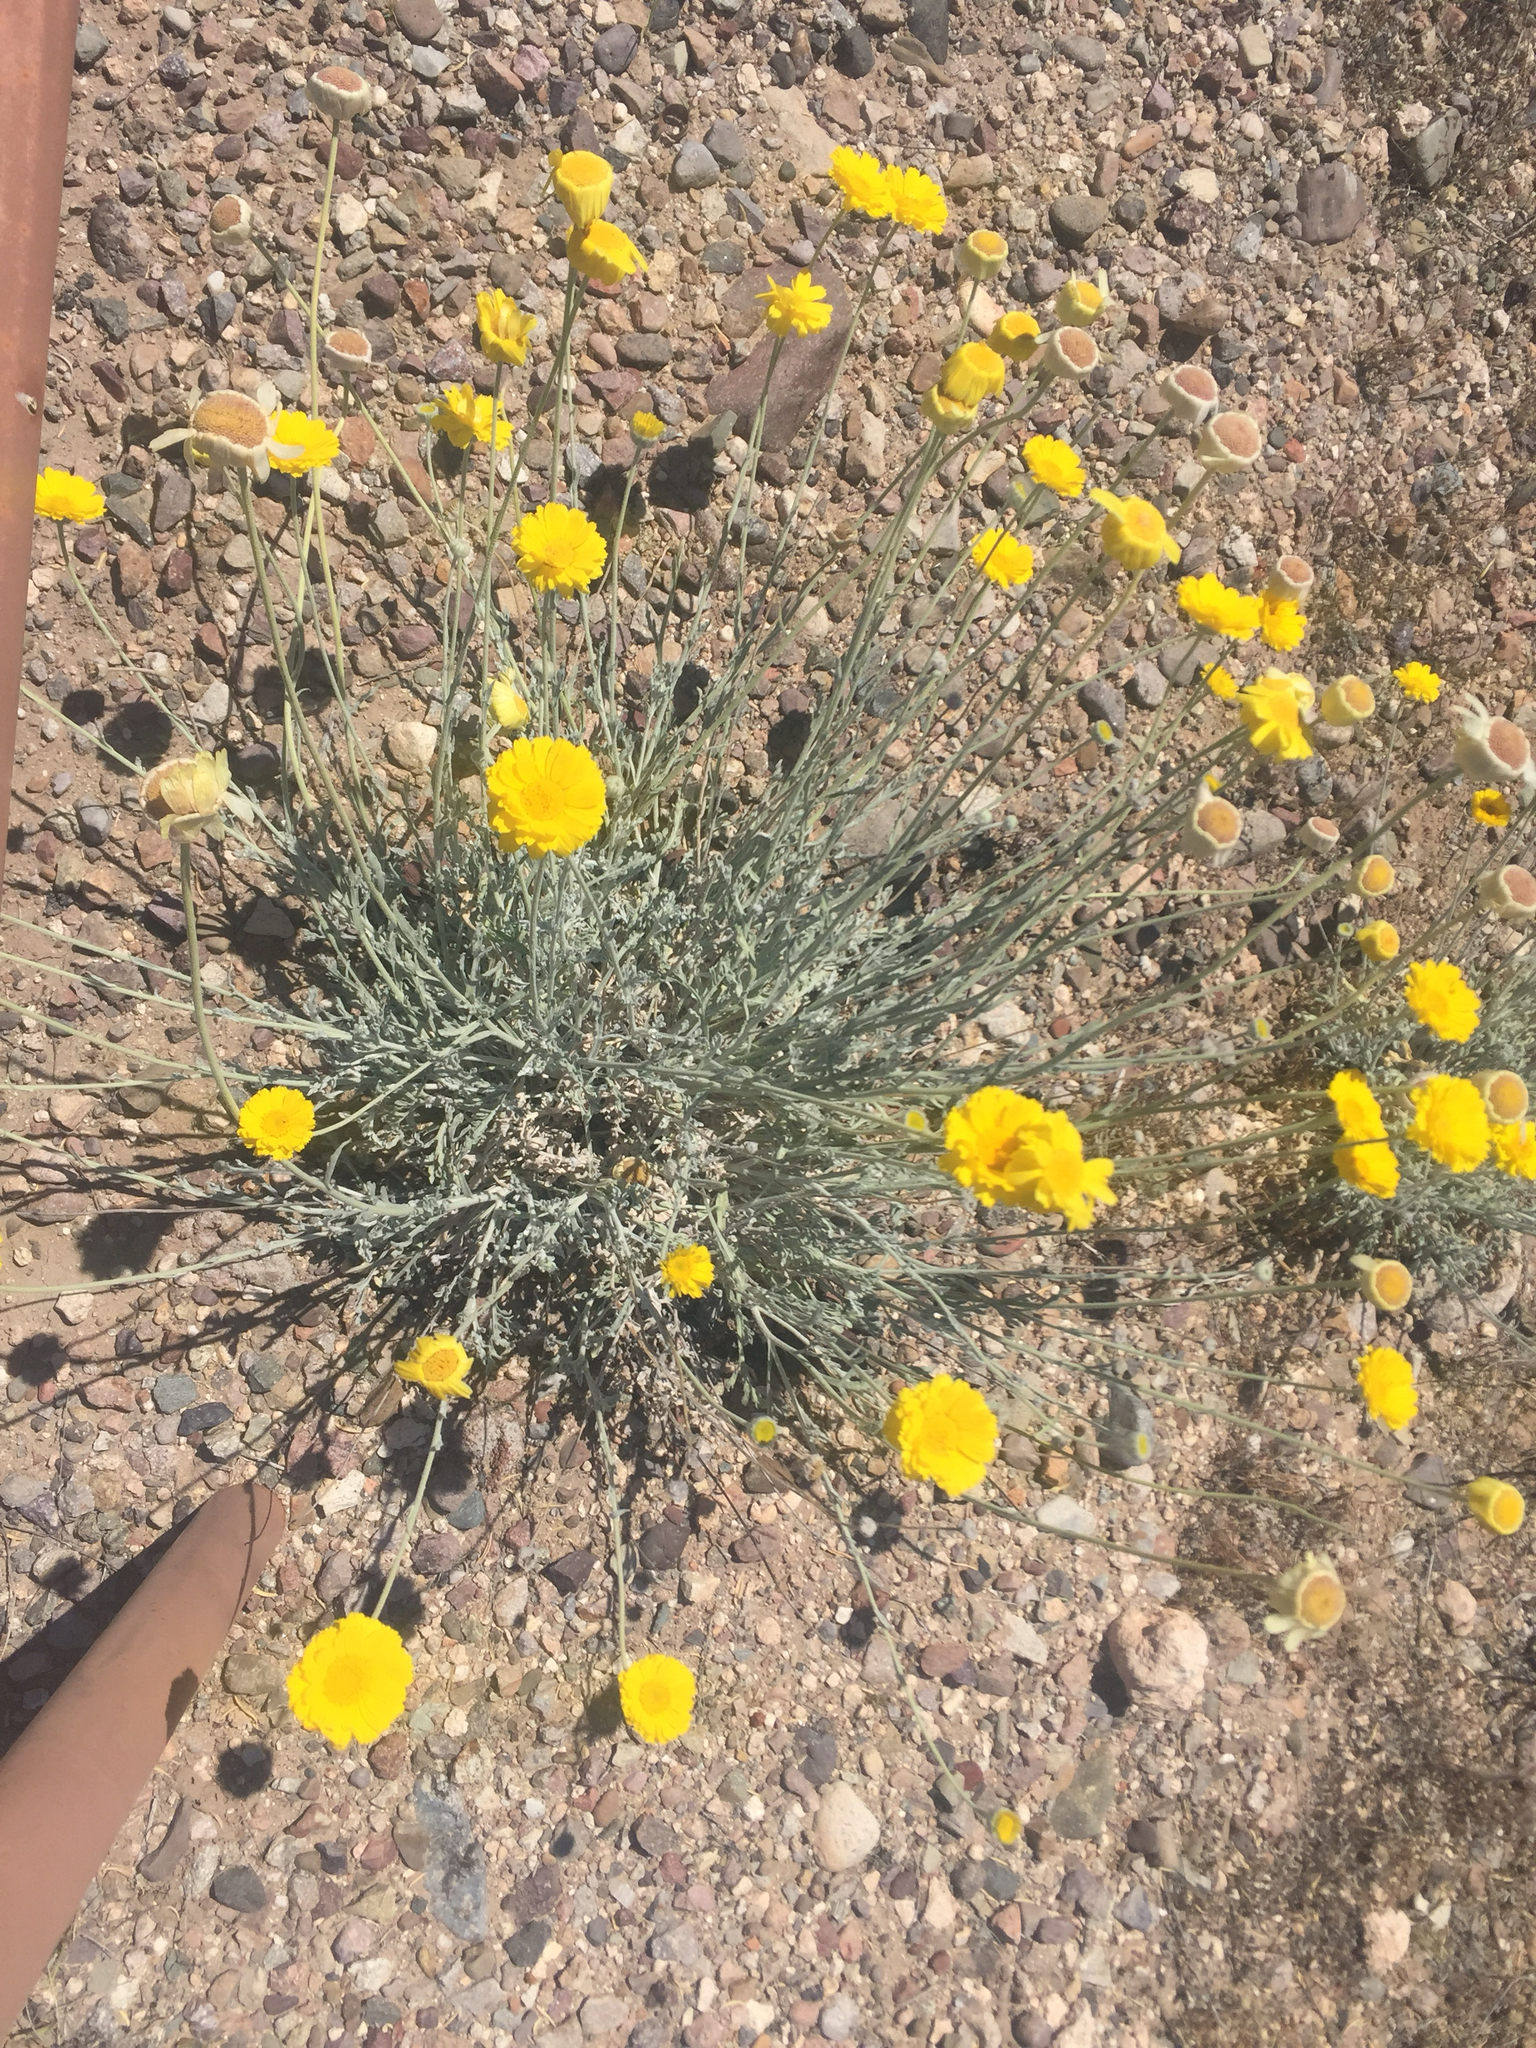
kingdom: Plantae
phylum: Tracheophyta
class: Magnoliopsida
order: Asterales
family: Asteraceae
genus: Baileya
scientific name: Baileya multiradiata
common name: Desert-marigold
